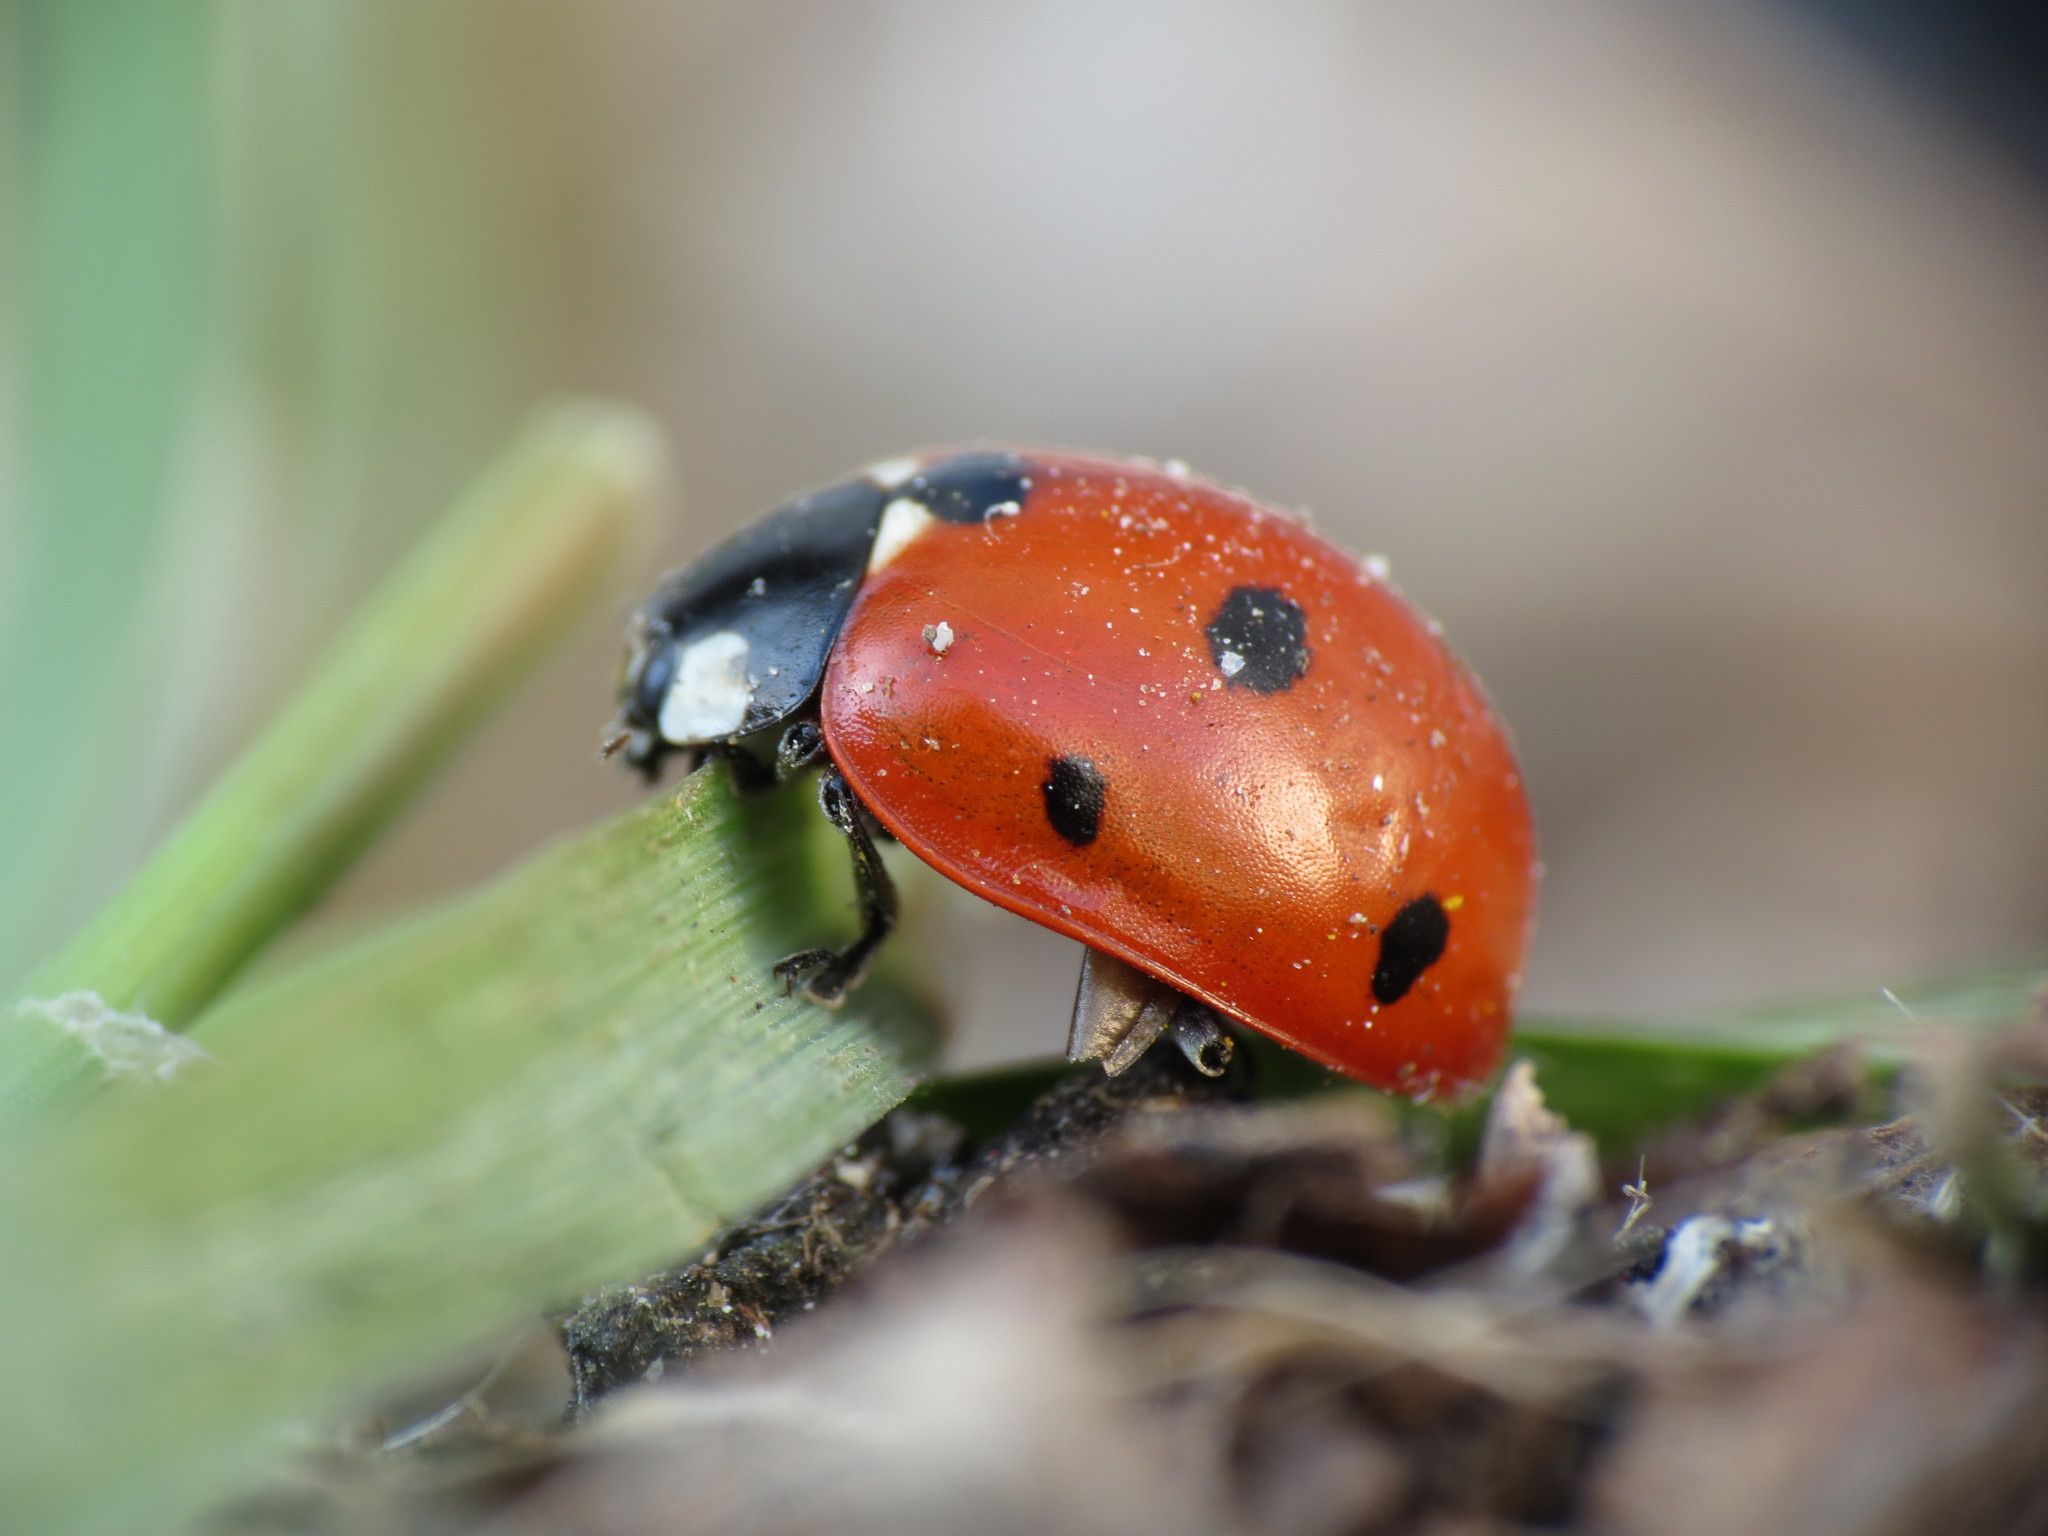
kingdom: Animalia
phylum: Arthropoda
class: Insecta
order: Coleoptera
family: Coccinellidae
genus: Coccinella
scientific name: Coccinella septempunctata
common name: Sevenspotted lady beetle
